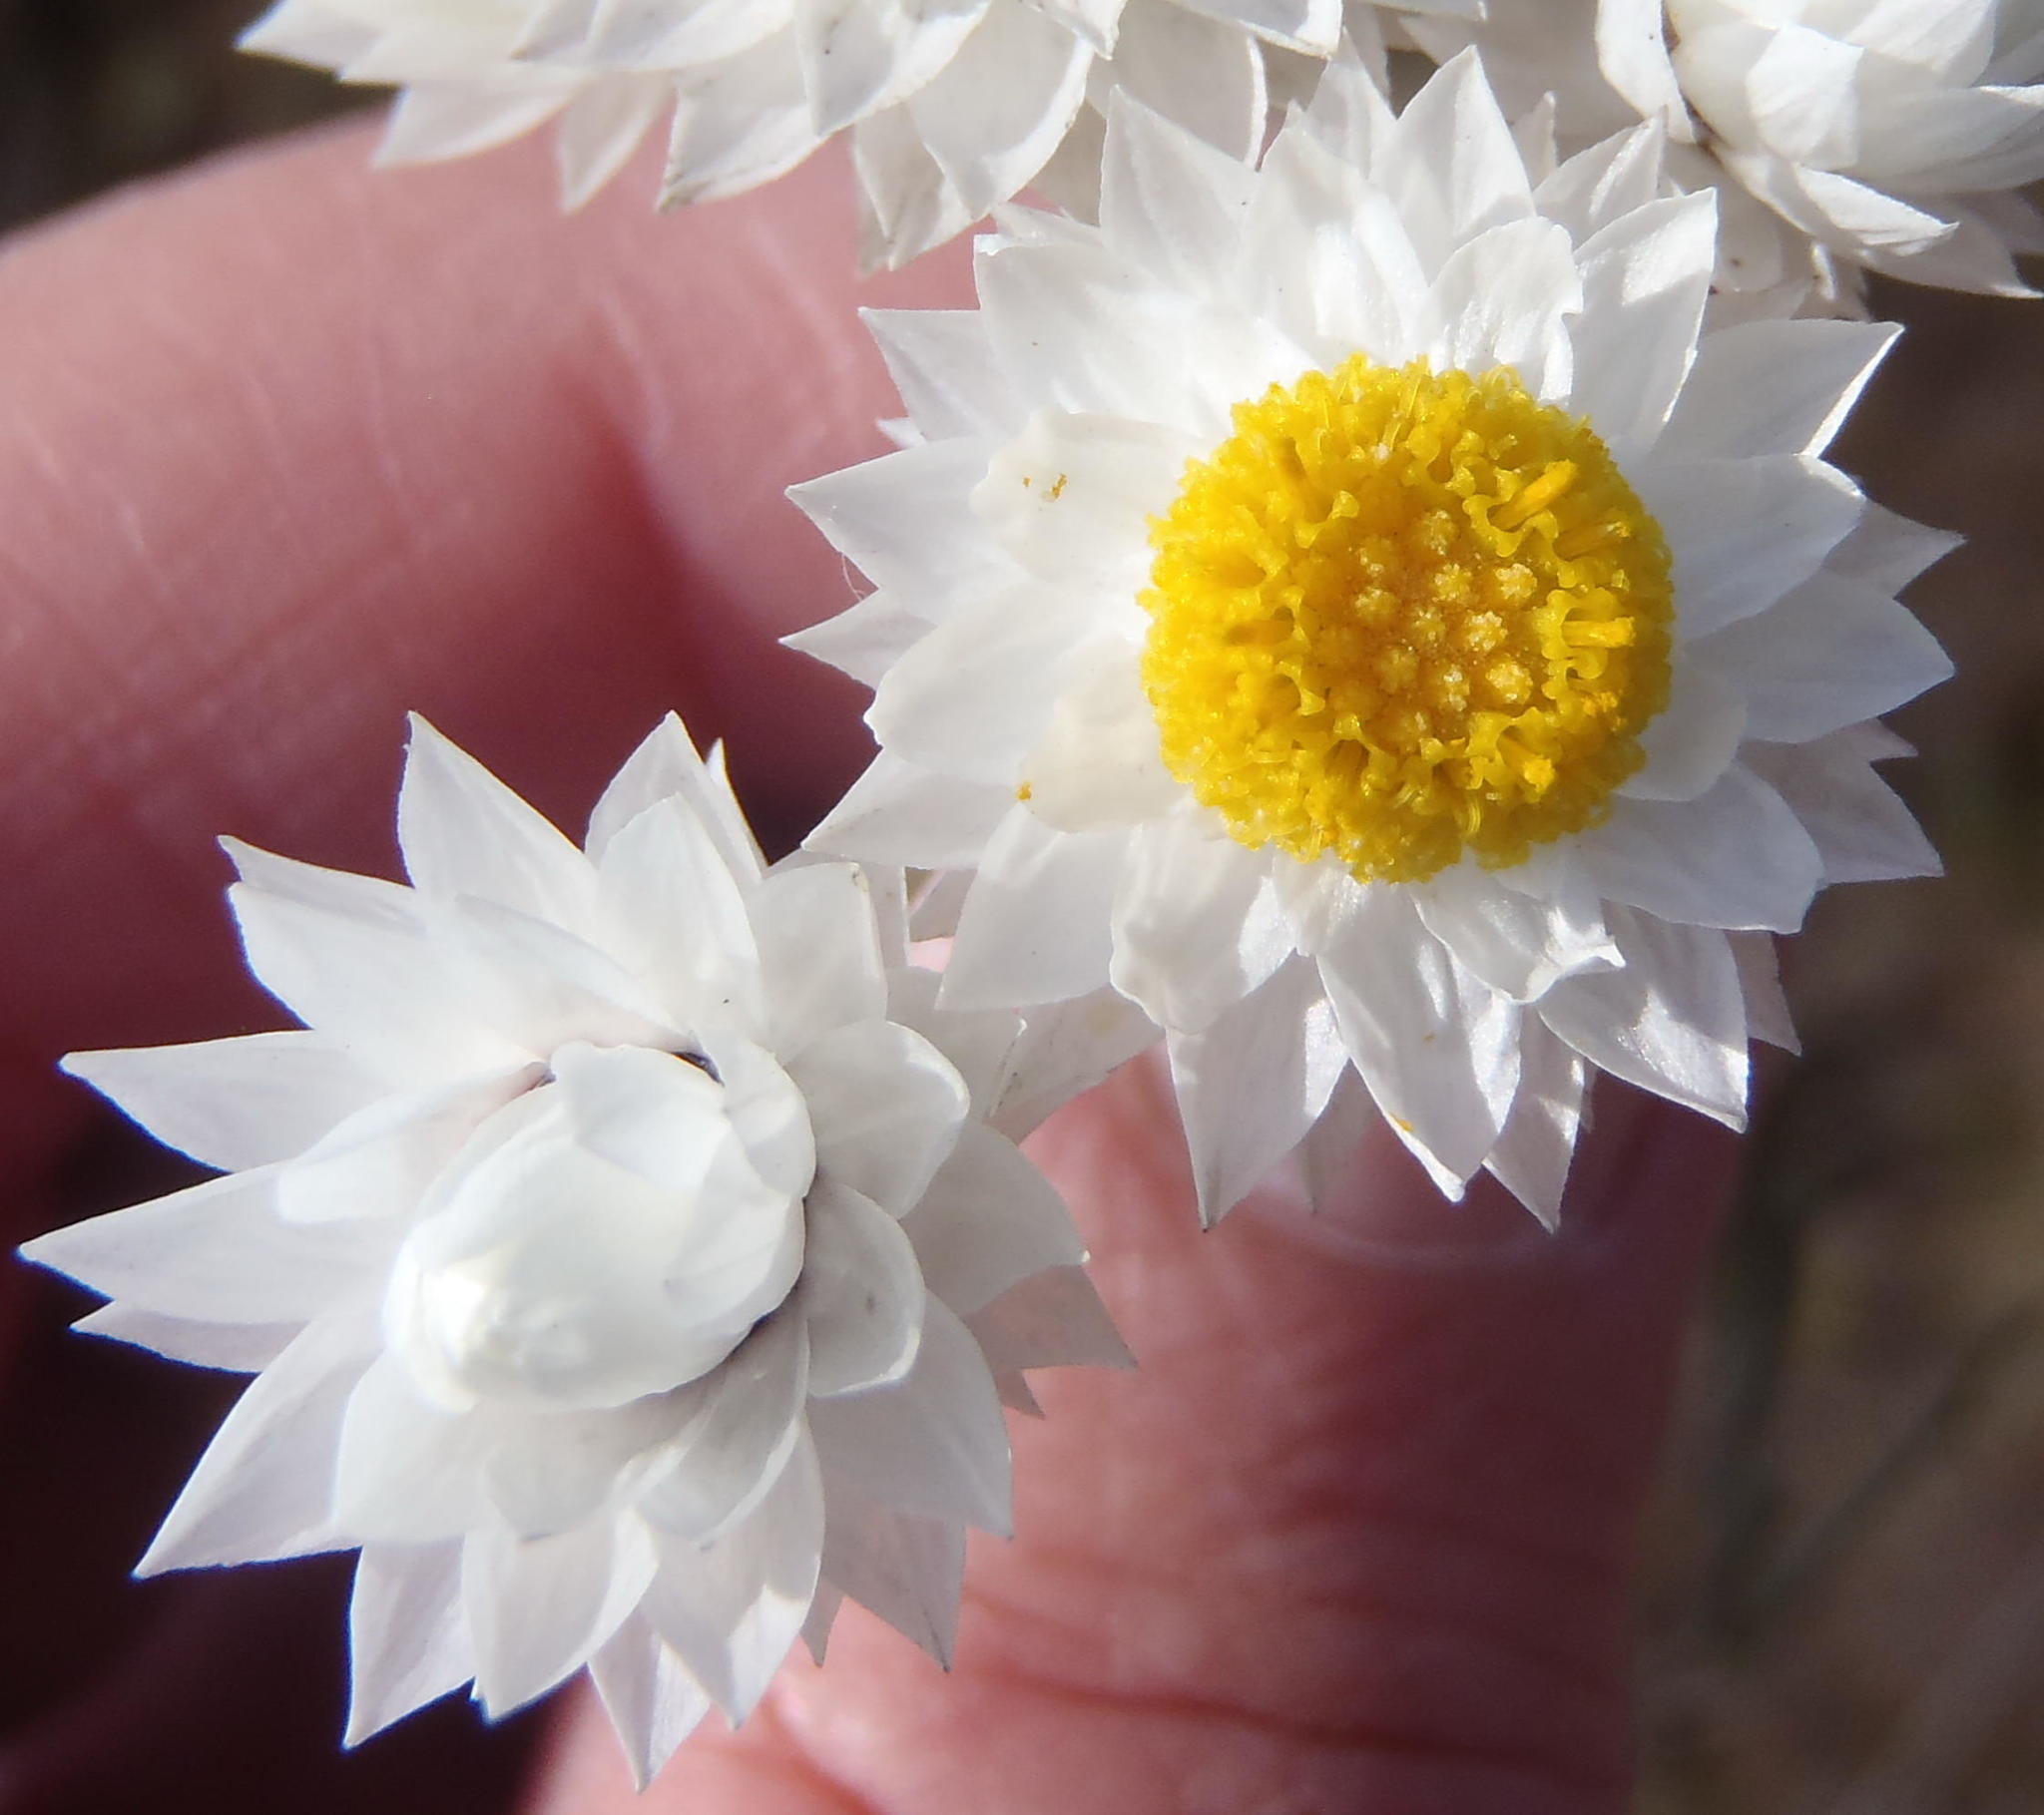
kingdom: Plantae
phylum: Tracheophyta
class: Magnoliopsida
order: Asterales
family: Asteraceae
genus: Achyranthemum
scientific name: Achyranthemum paniculatum
